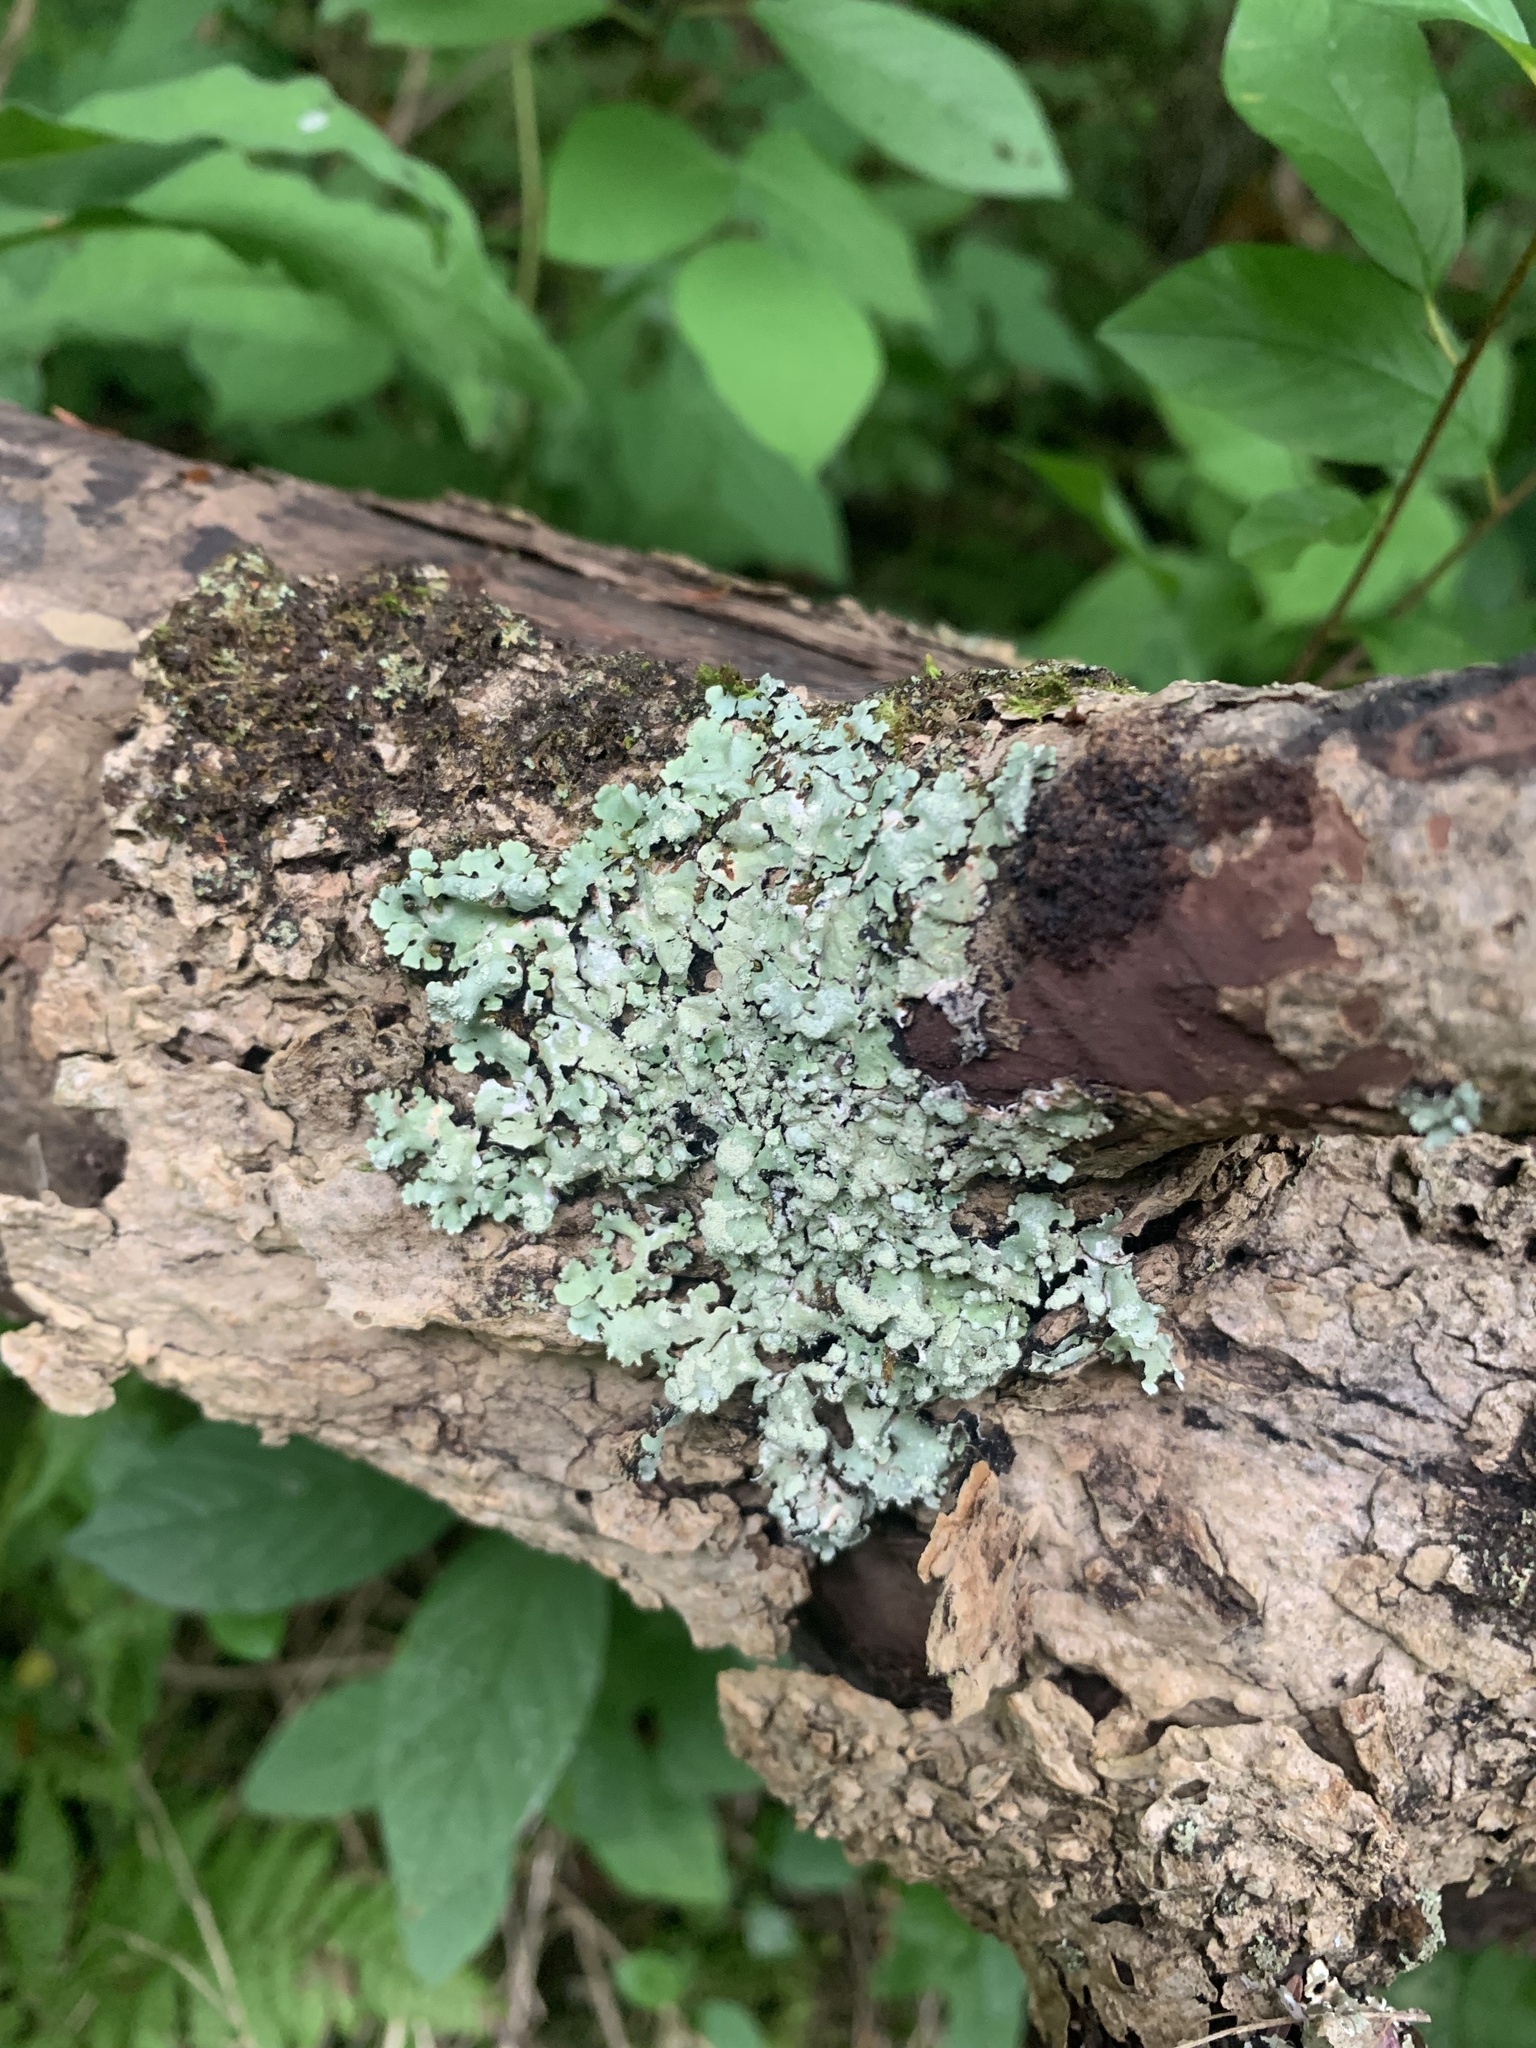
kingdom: Fungi
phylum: Ascomycota
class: Lecanoromycetes
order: Lecanorales
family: Parmeliaceae
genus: Myelochroa
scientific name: Myelochroa aurulenta
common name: Powdery axil-bristle lichen
